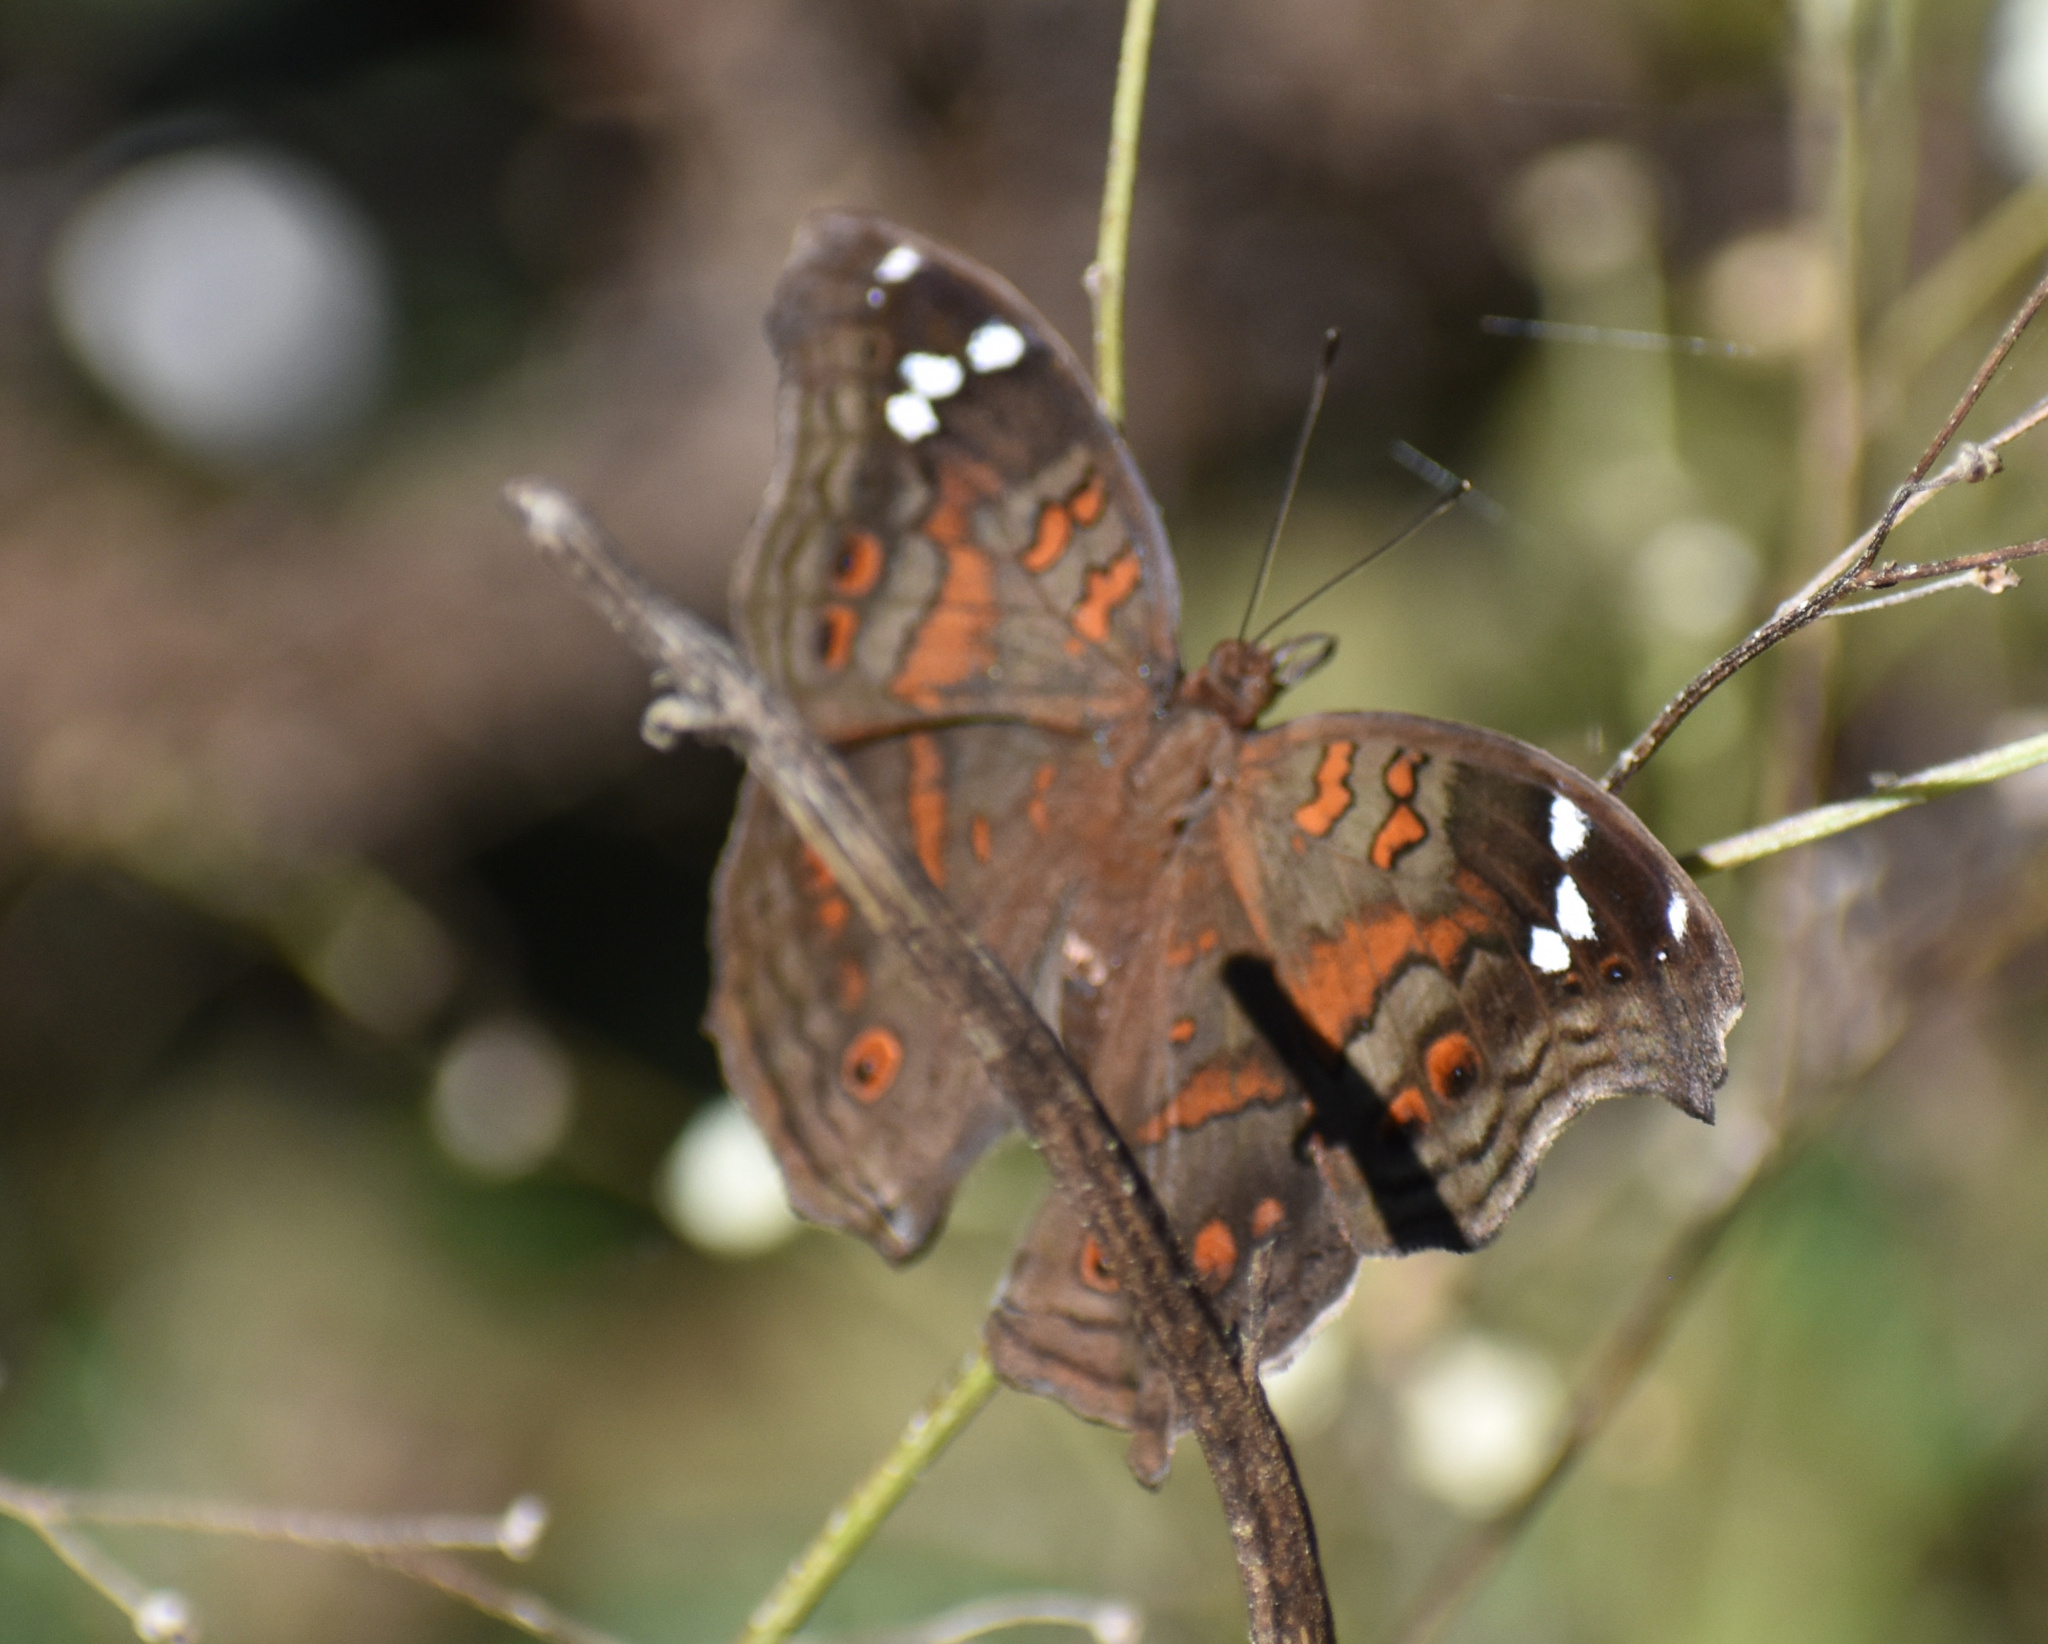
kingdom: Animalia
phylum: Arthropoda
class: Insecta
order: Lepidoptera
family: Nymphalidae
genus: Junonia
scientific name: Junonia natalica
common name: Brown pansy
